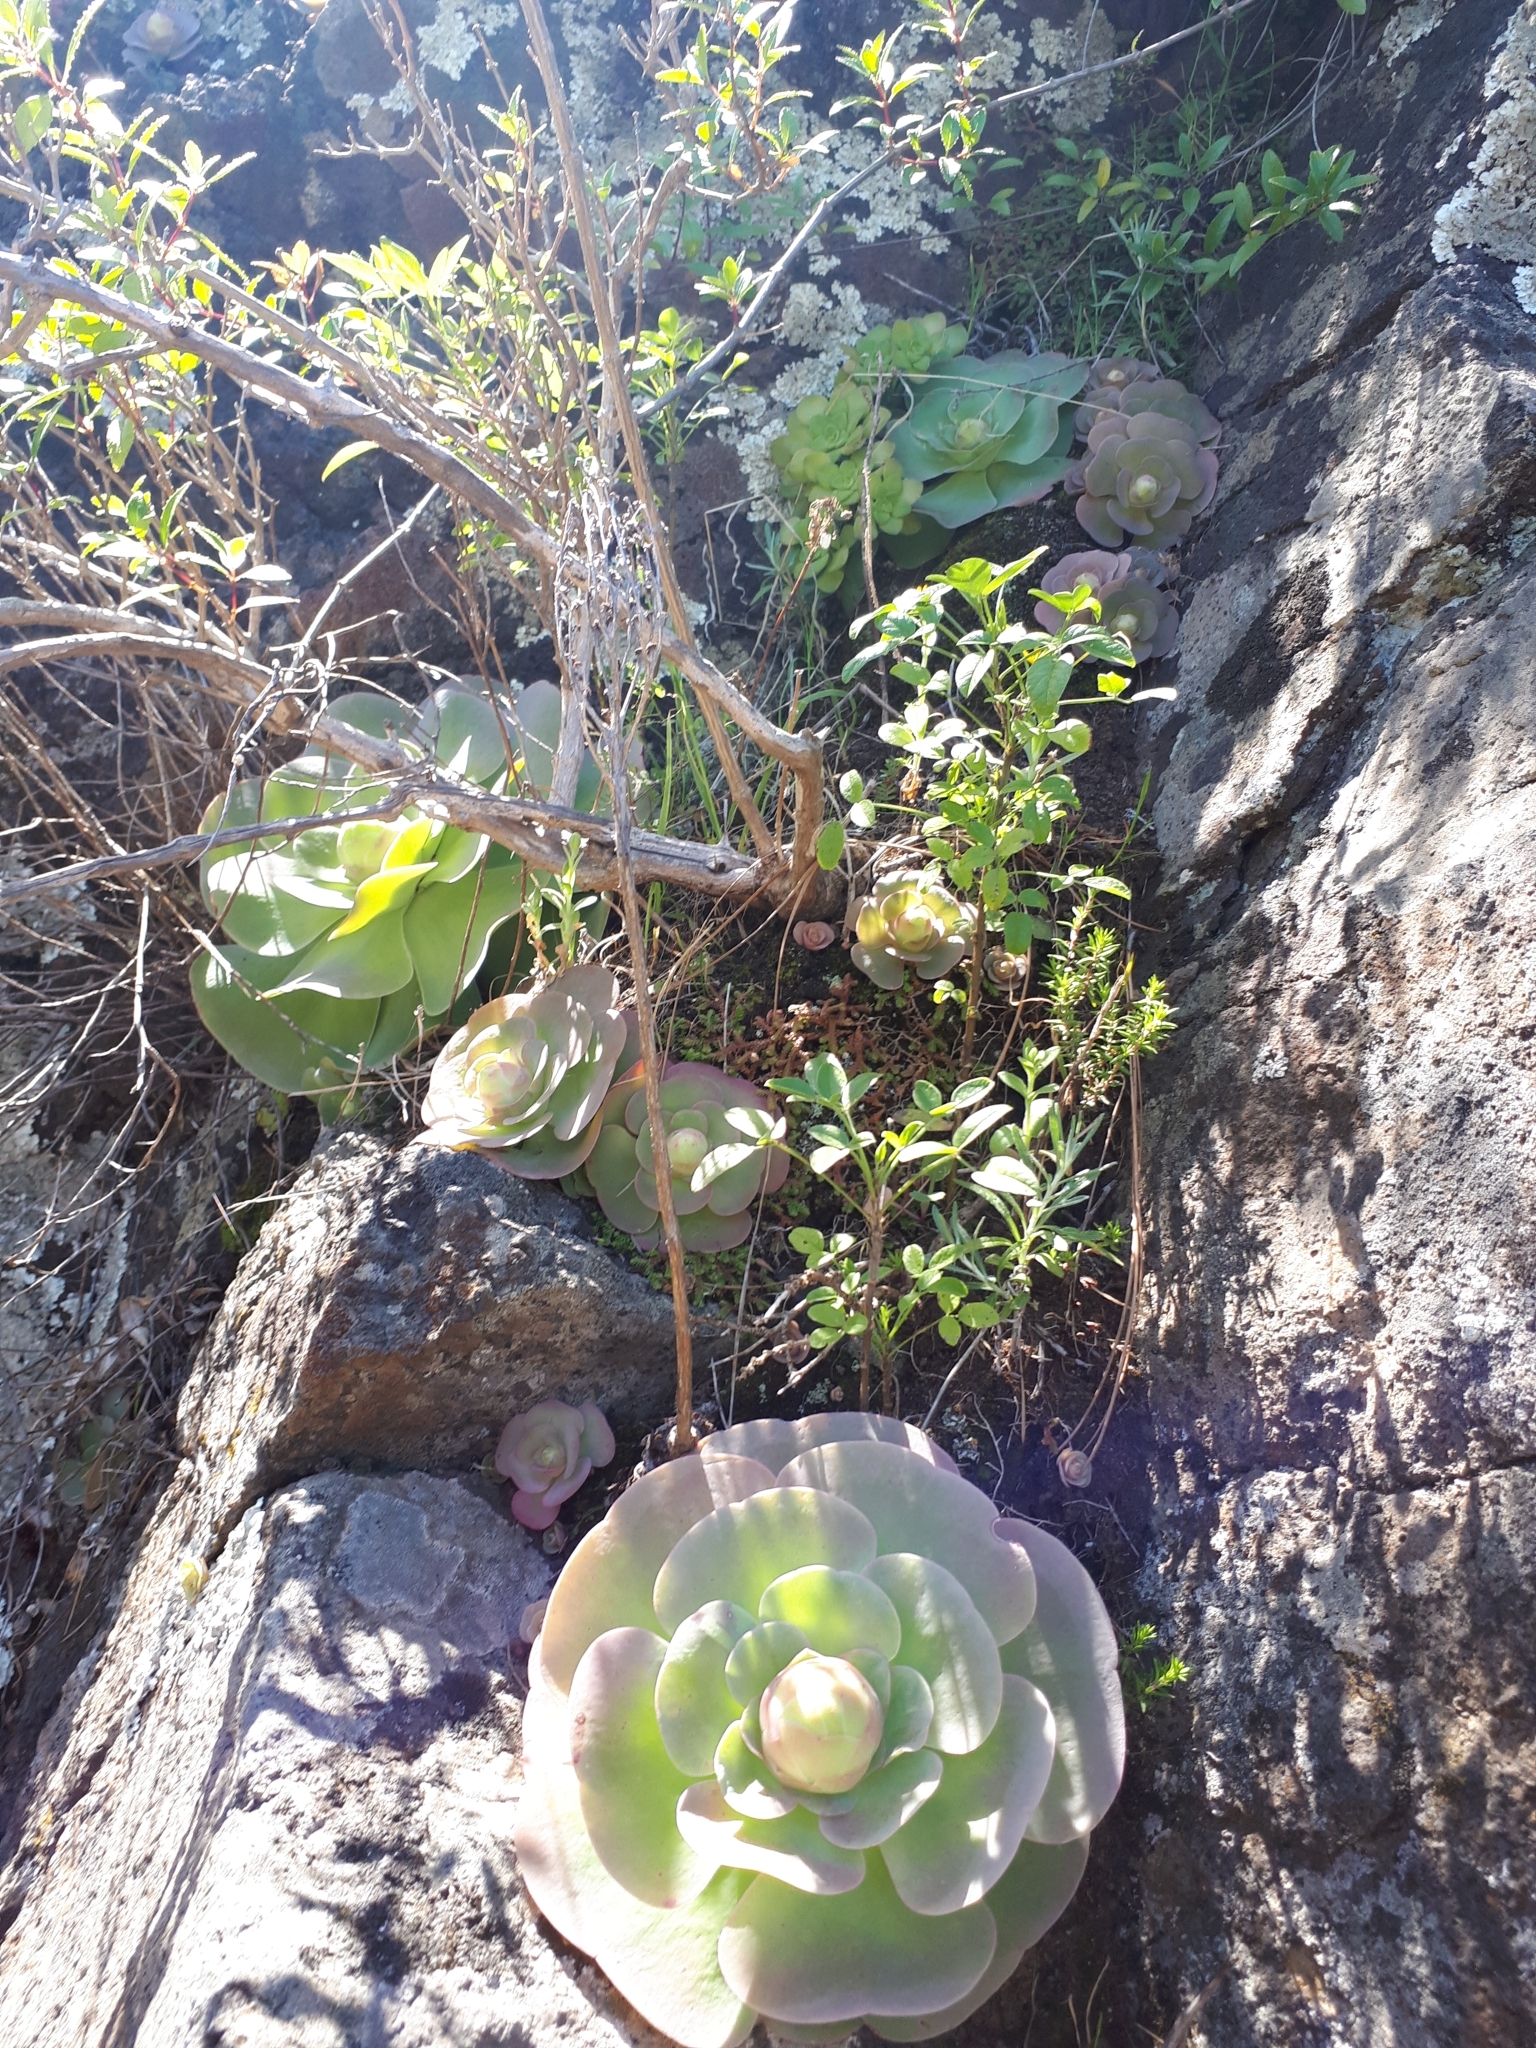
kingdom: Plantae
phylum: Tracheophyta
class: Magnoliopsida
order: Saxifragales
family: Crassulaceae
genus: Aeonium
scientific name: Aeonium diplocyclum
